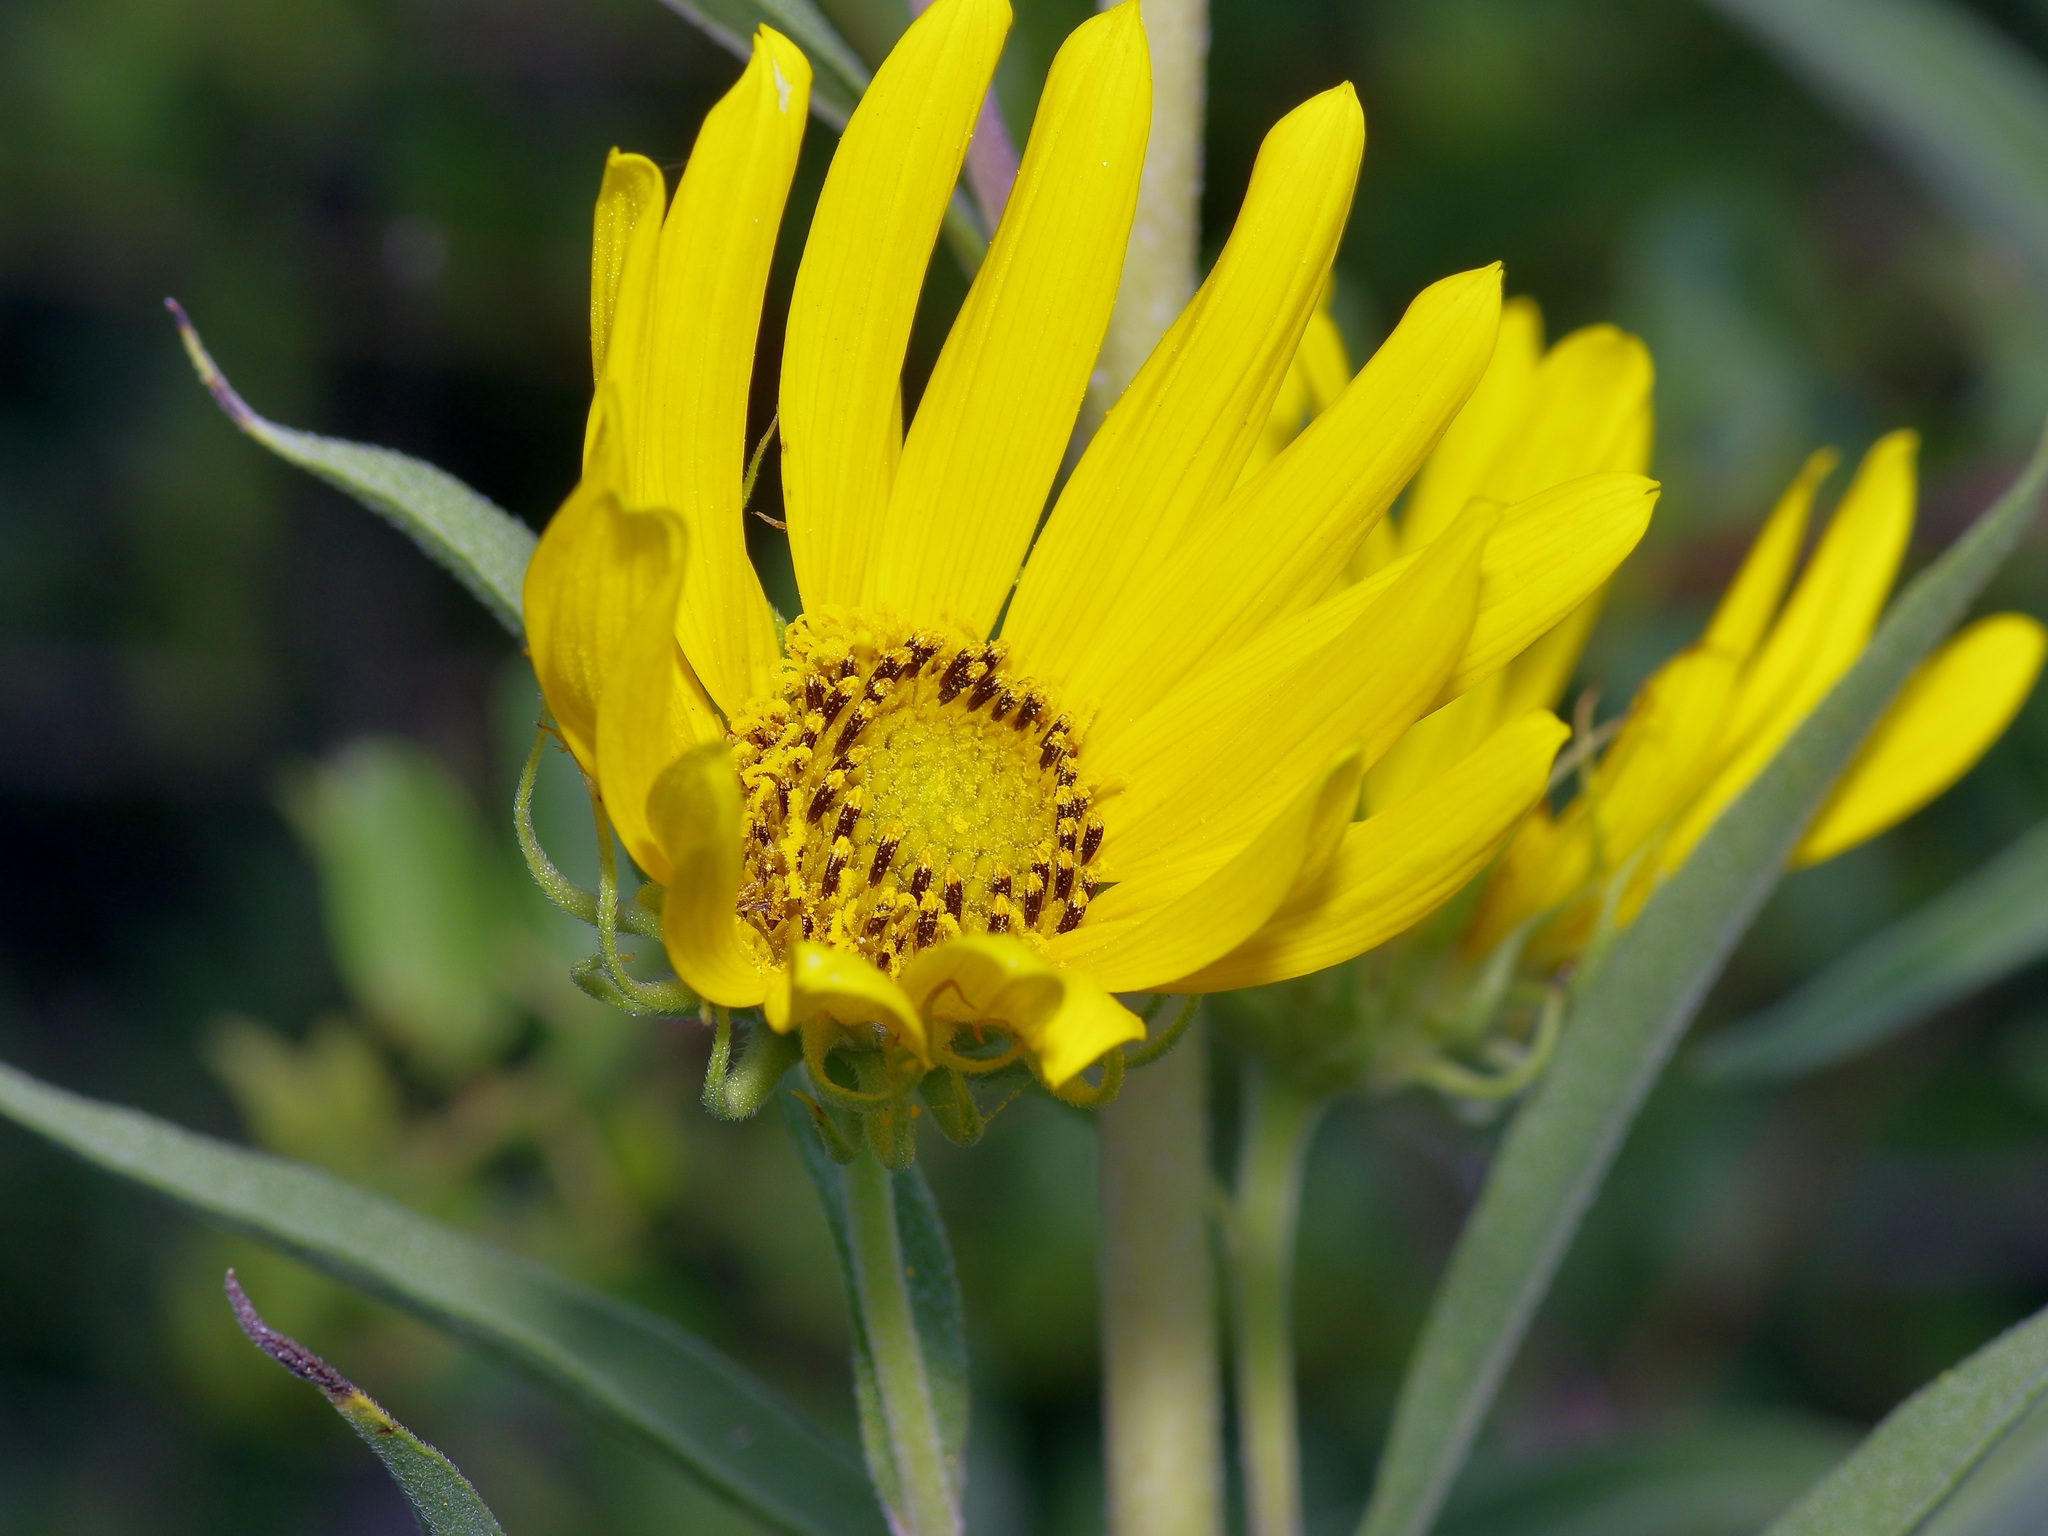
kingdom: Plantae
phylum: Tracheophyta
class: Magnoliopsida
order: Asterales
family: Asteraceae
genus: Helianthus
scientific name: Helianthus maximiliani
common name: Maximilian's sunflower
